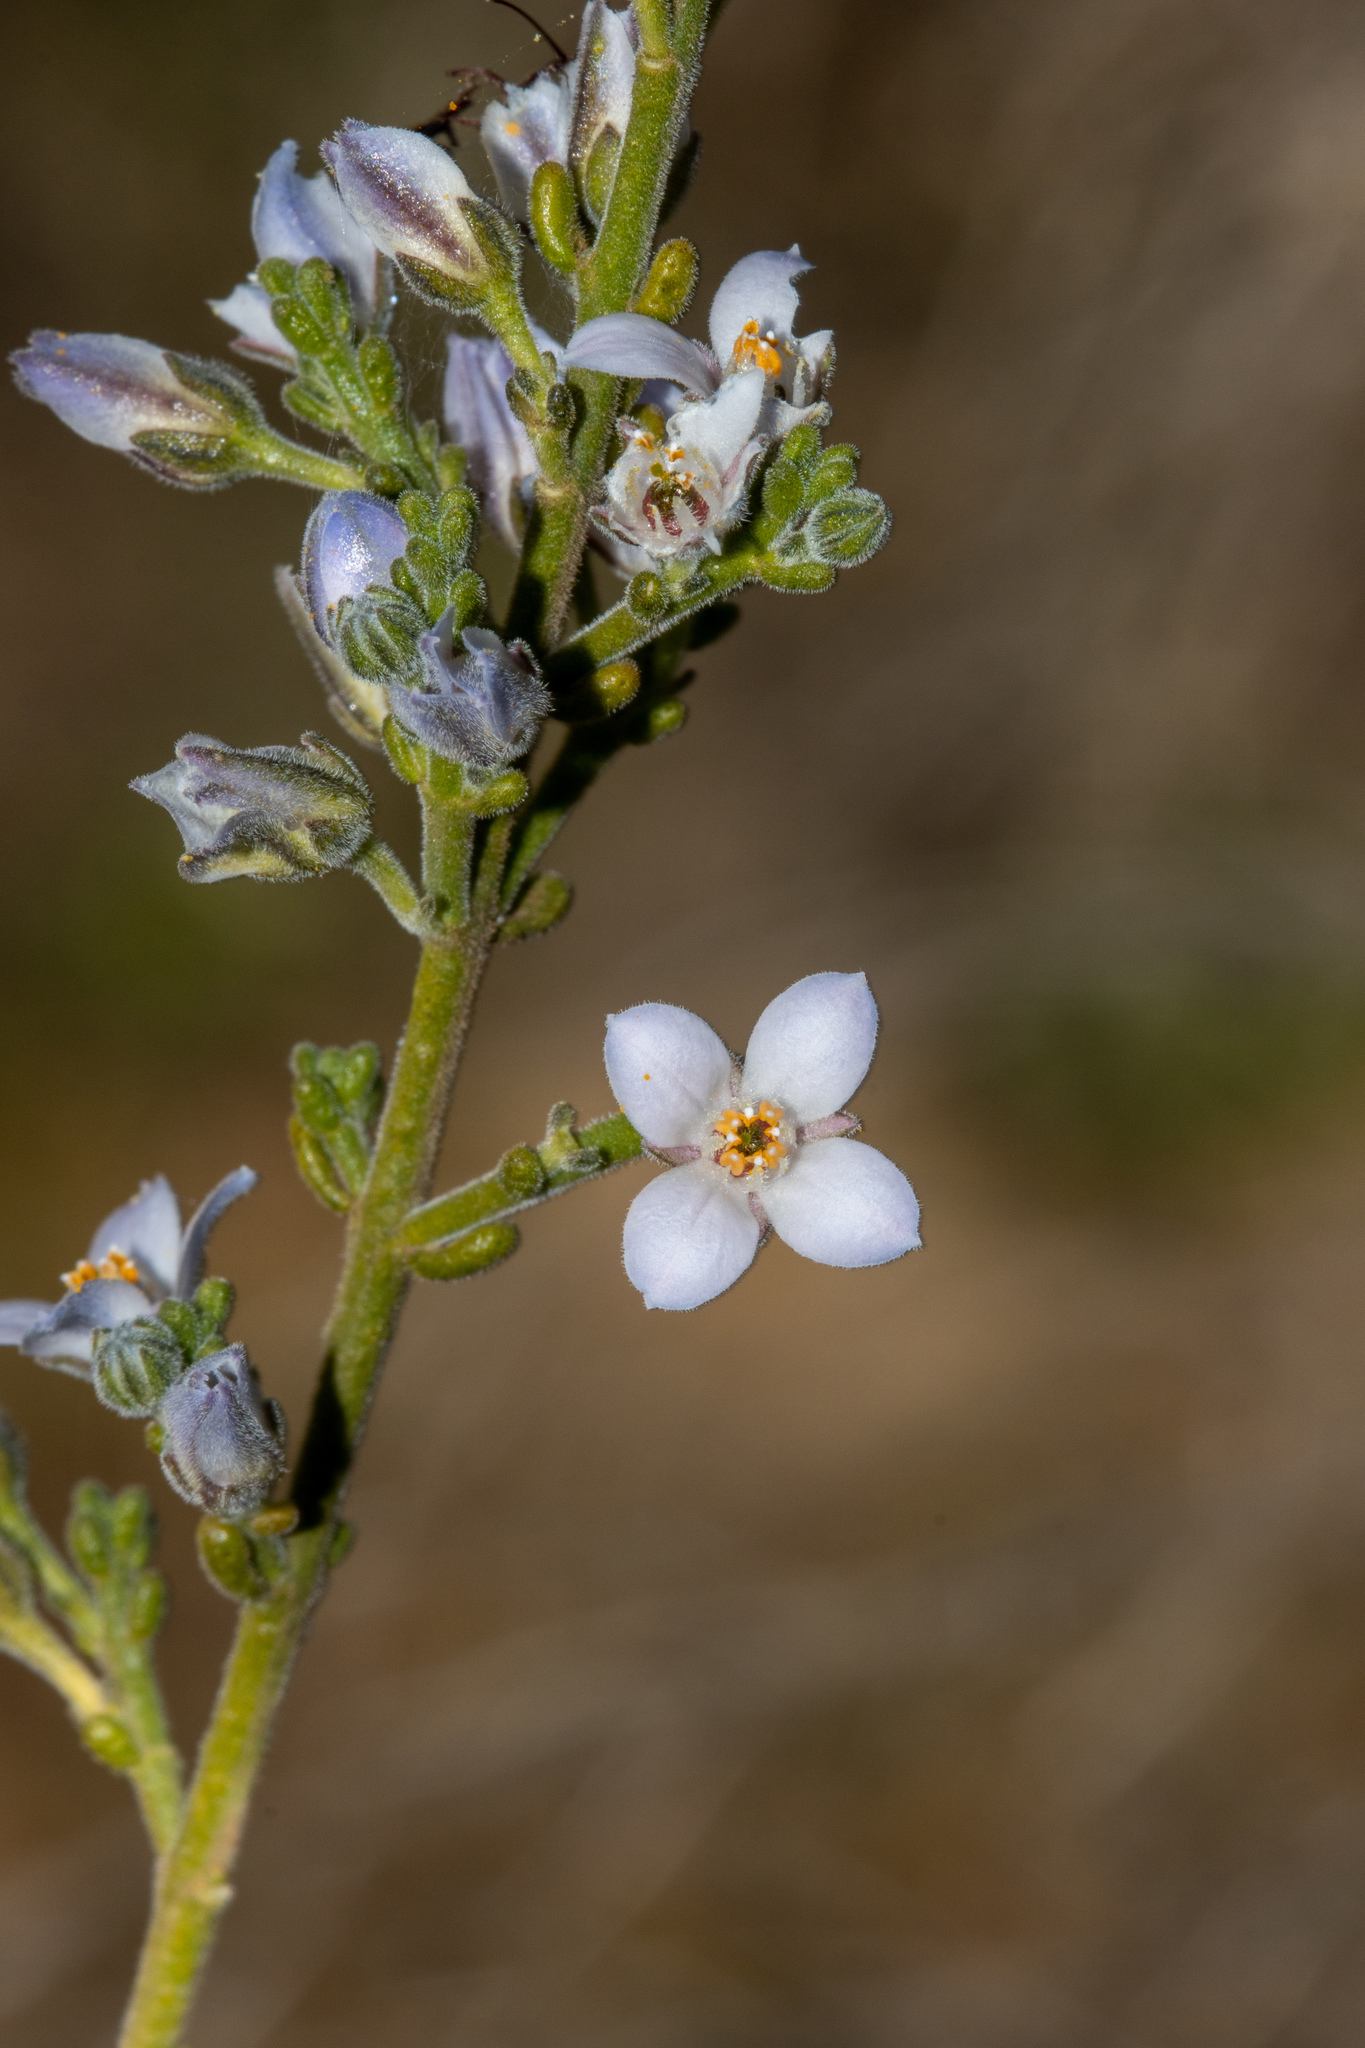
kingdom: Plantae
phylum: Tracheophyta
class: Magnoliopsida
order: Sapindales
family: Rutaceae
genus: Cyanothamnus
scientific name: Cyanothamnus coerulescens
